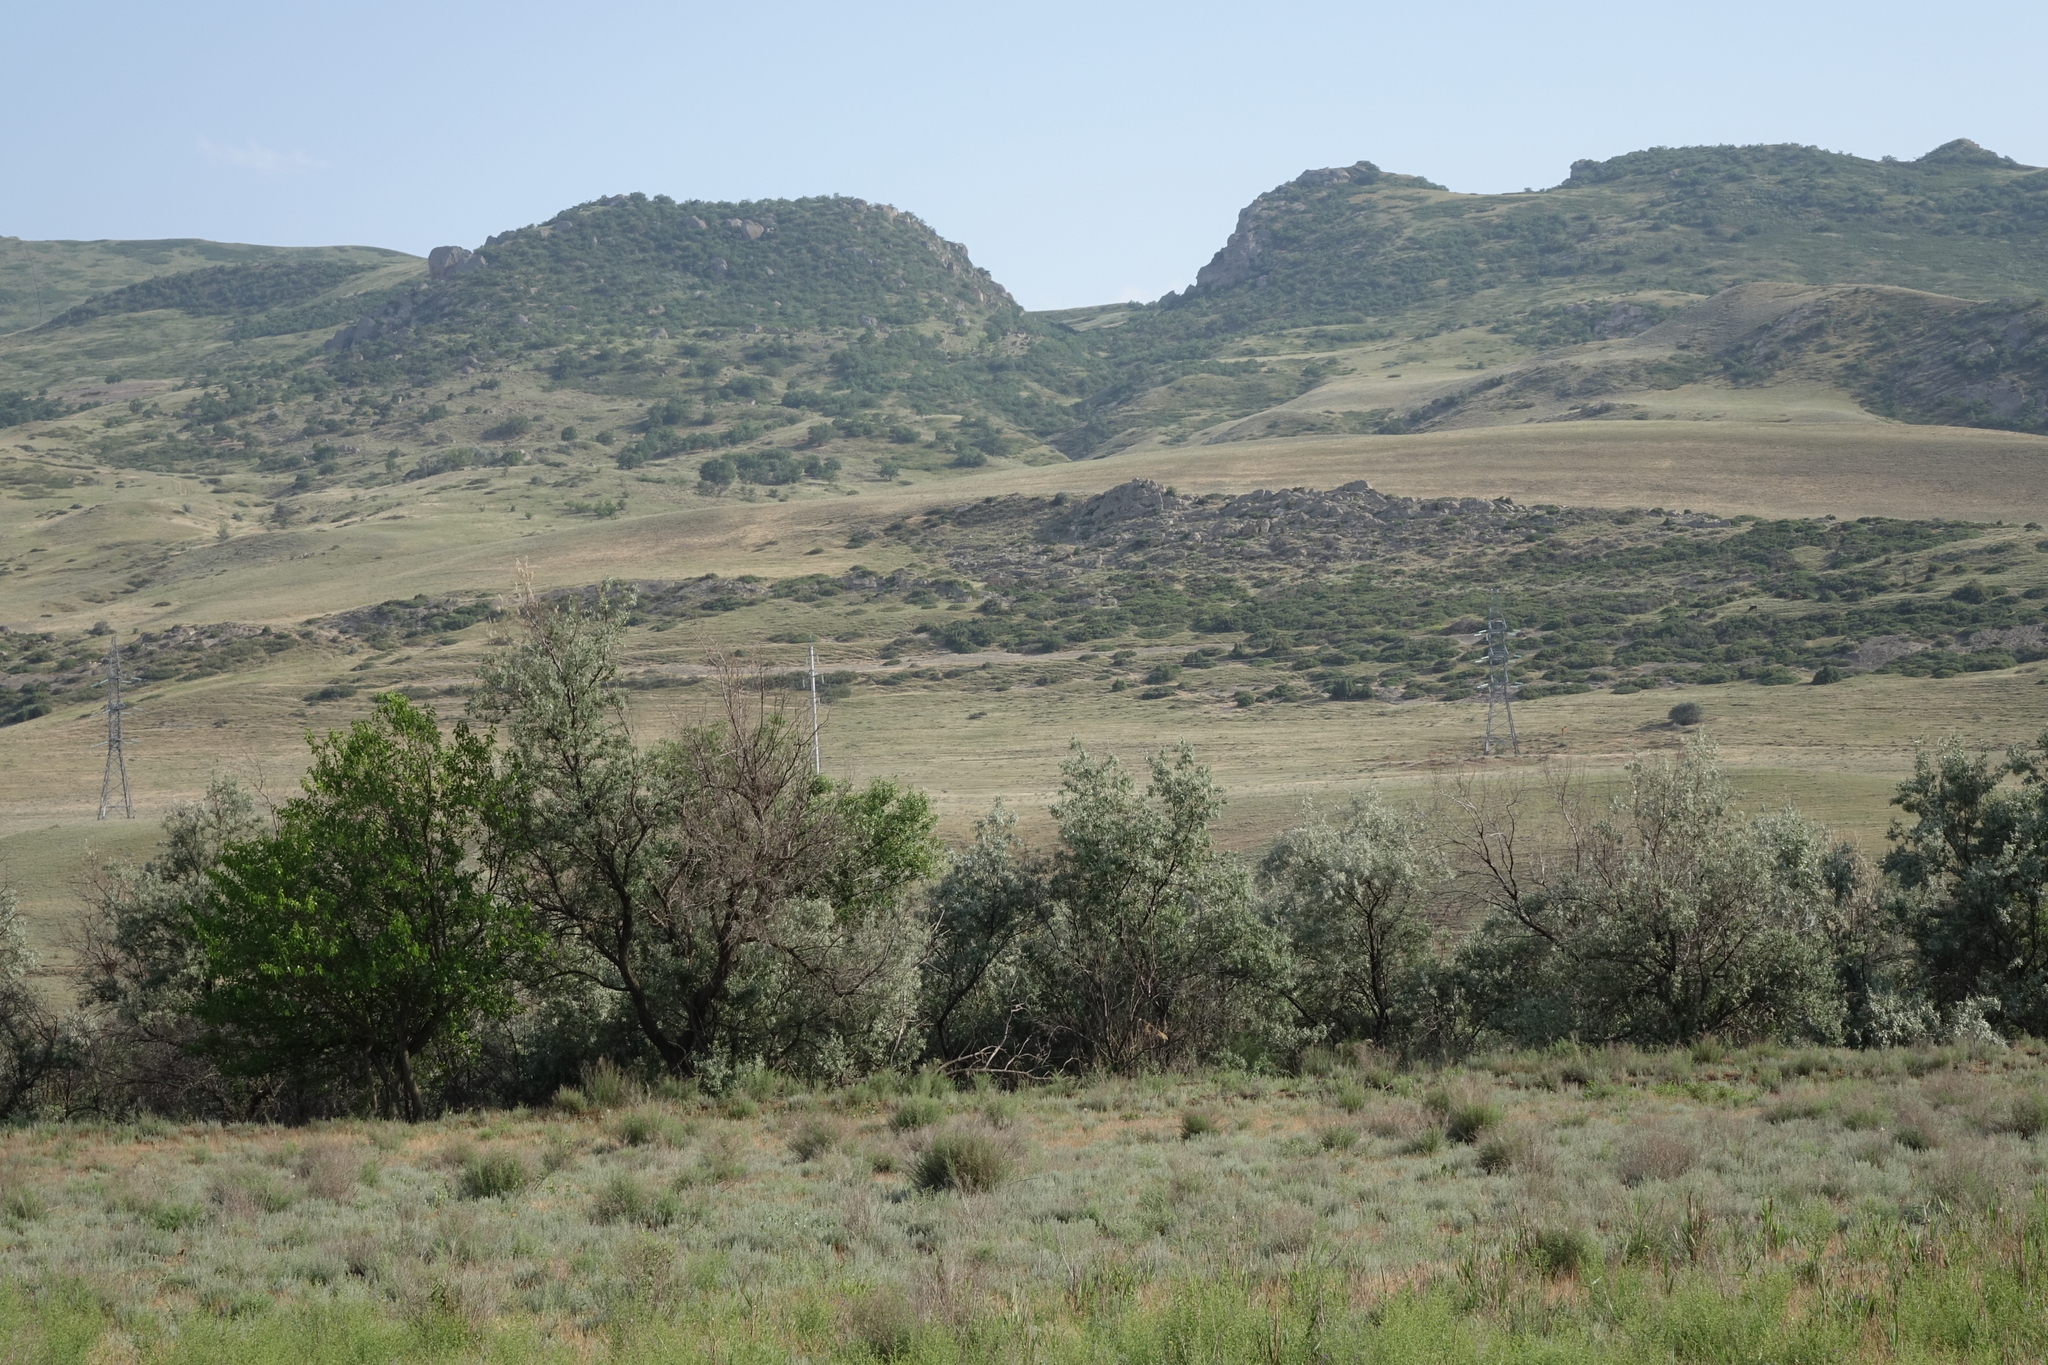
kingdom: Plantae
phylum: Tracheophyta
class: Magnoliopsida
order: Rosales
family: Elaeagnaceae
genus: Elaeagnus
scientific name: Elaeagnus angustifolia
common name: Russian olive
